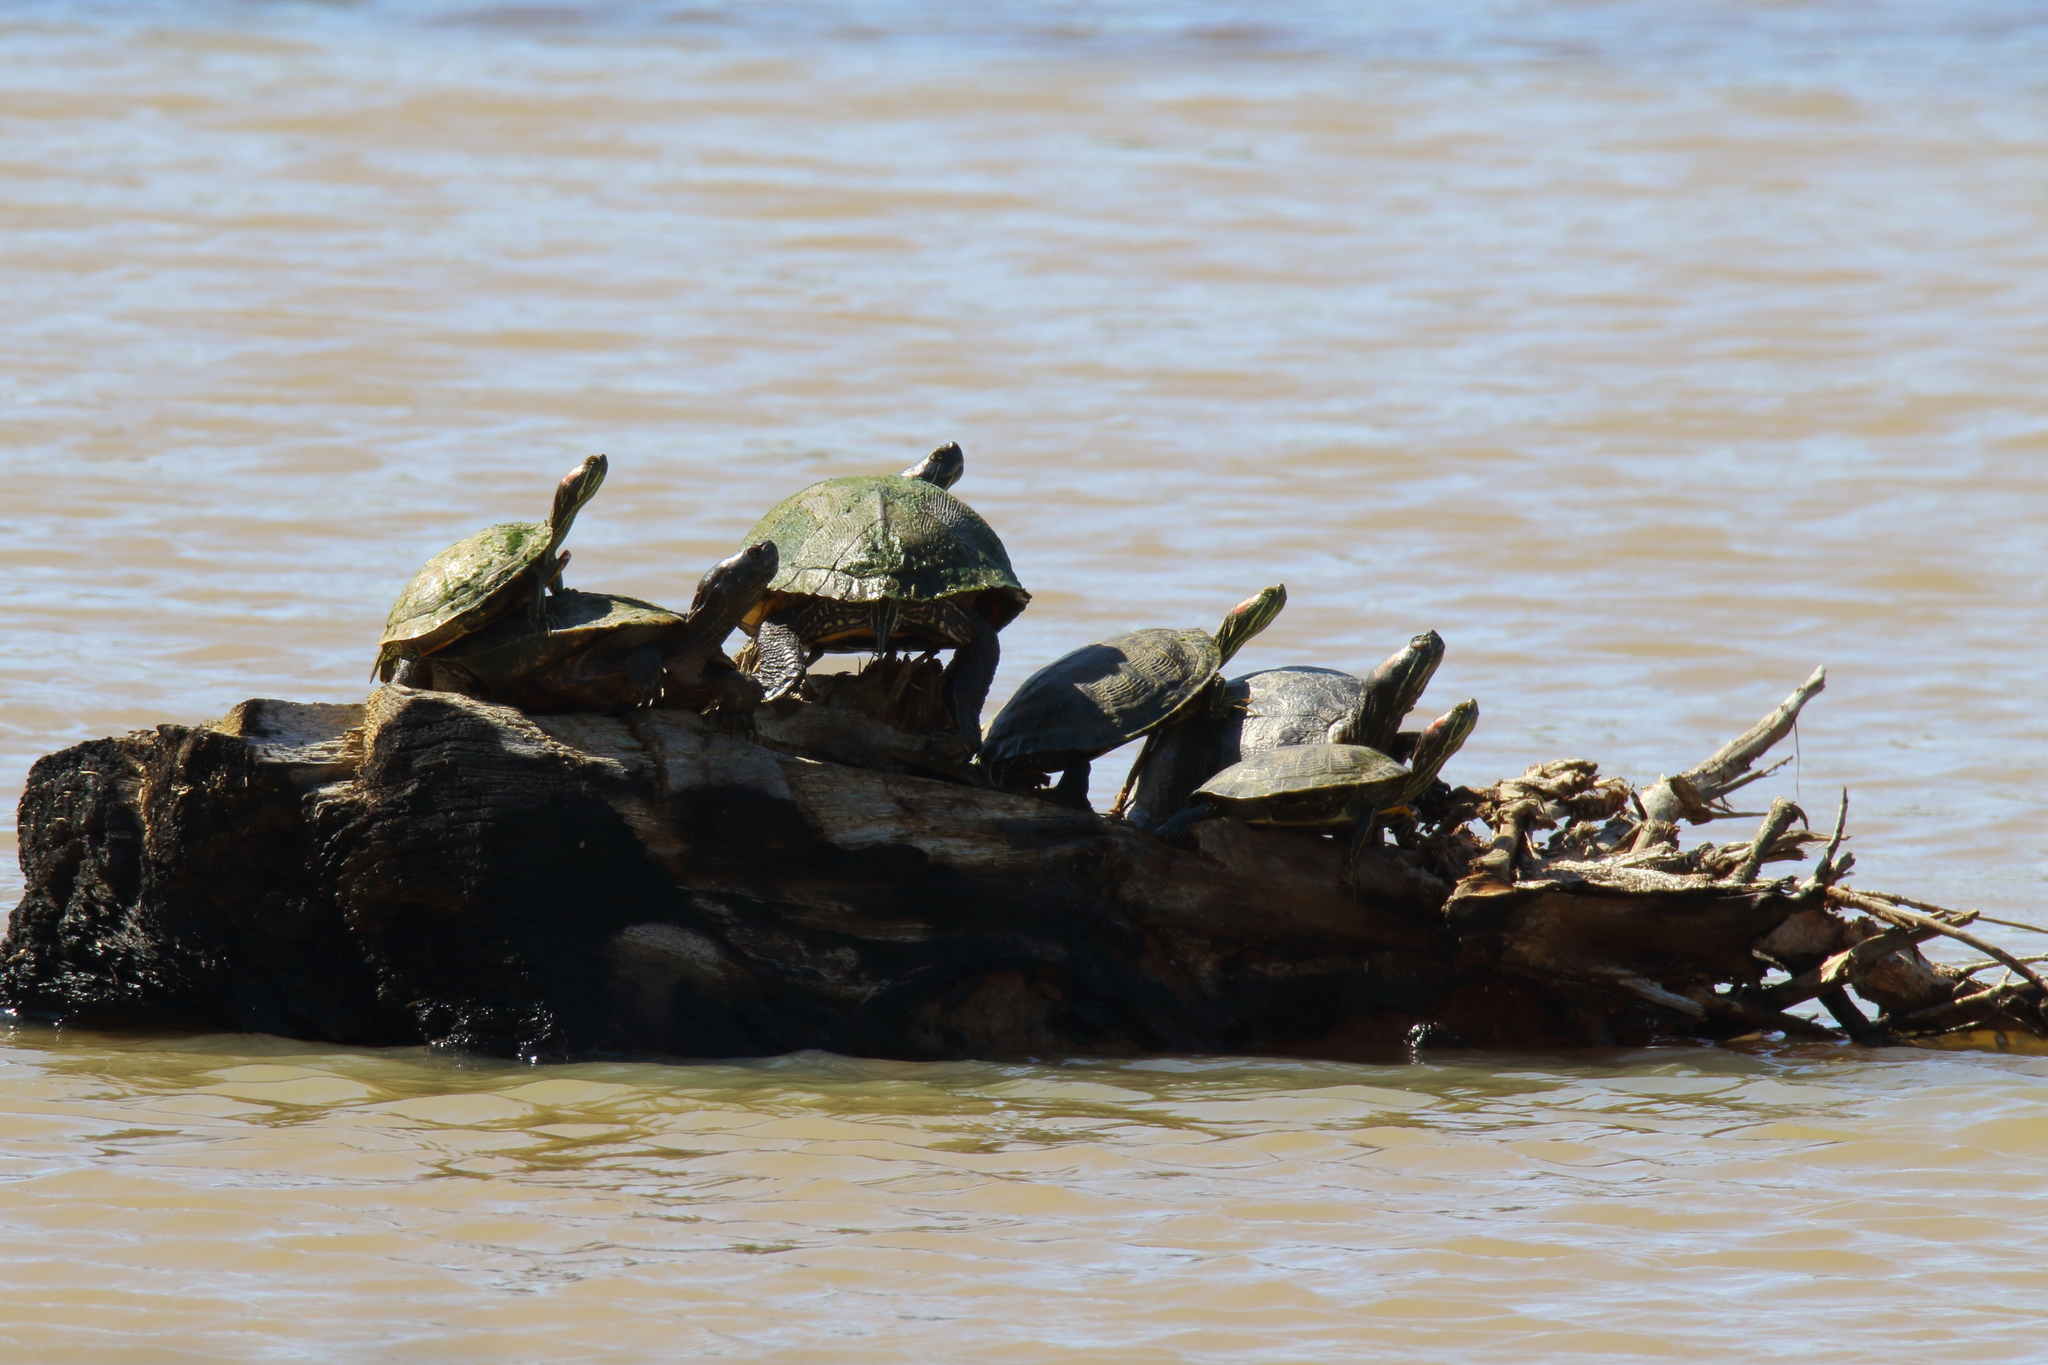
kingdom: Animalia
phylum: Chordata
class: Testudines
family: Emydidae
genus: Trachemys
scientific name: Trachemys scripta
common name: Slider
